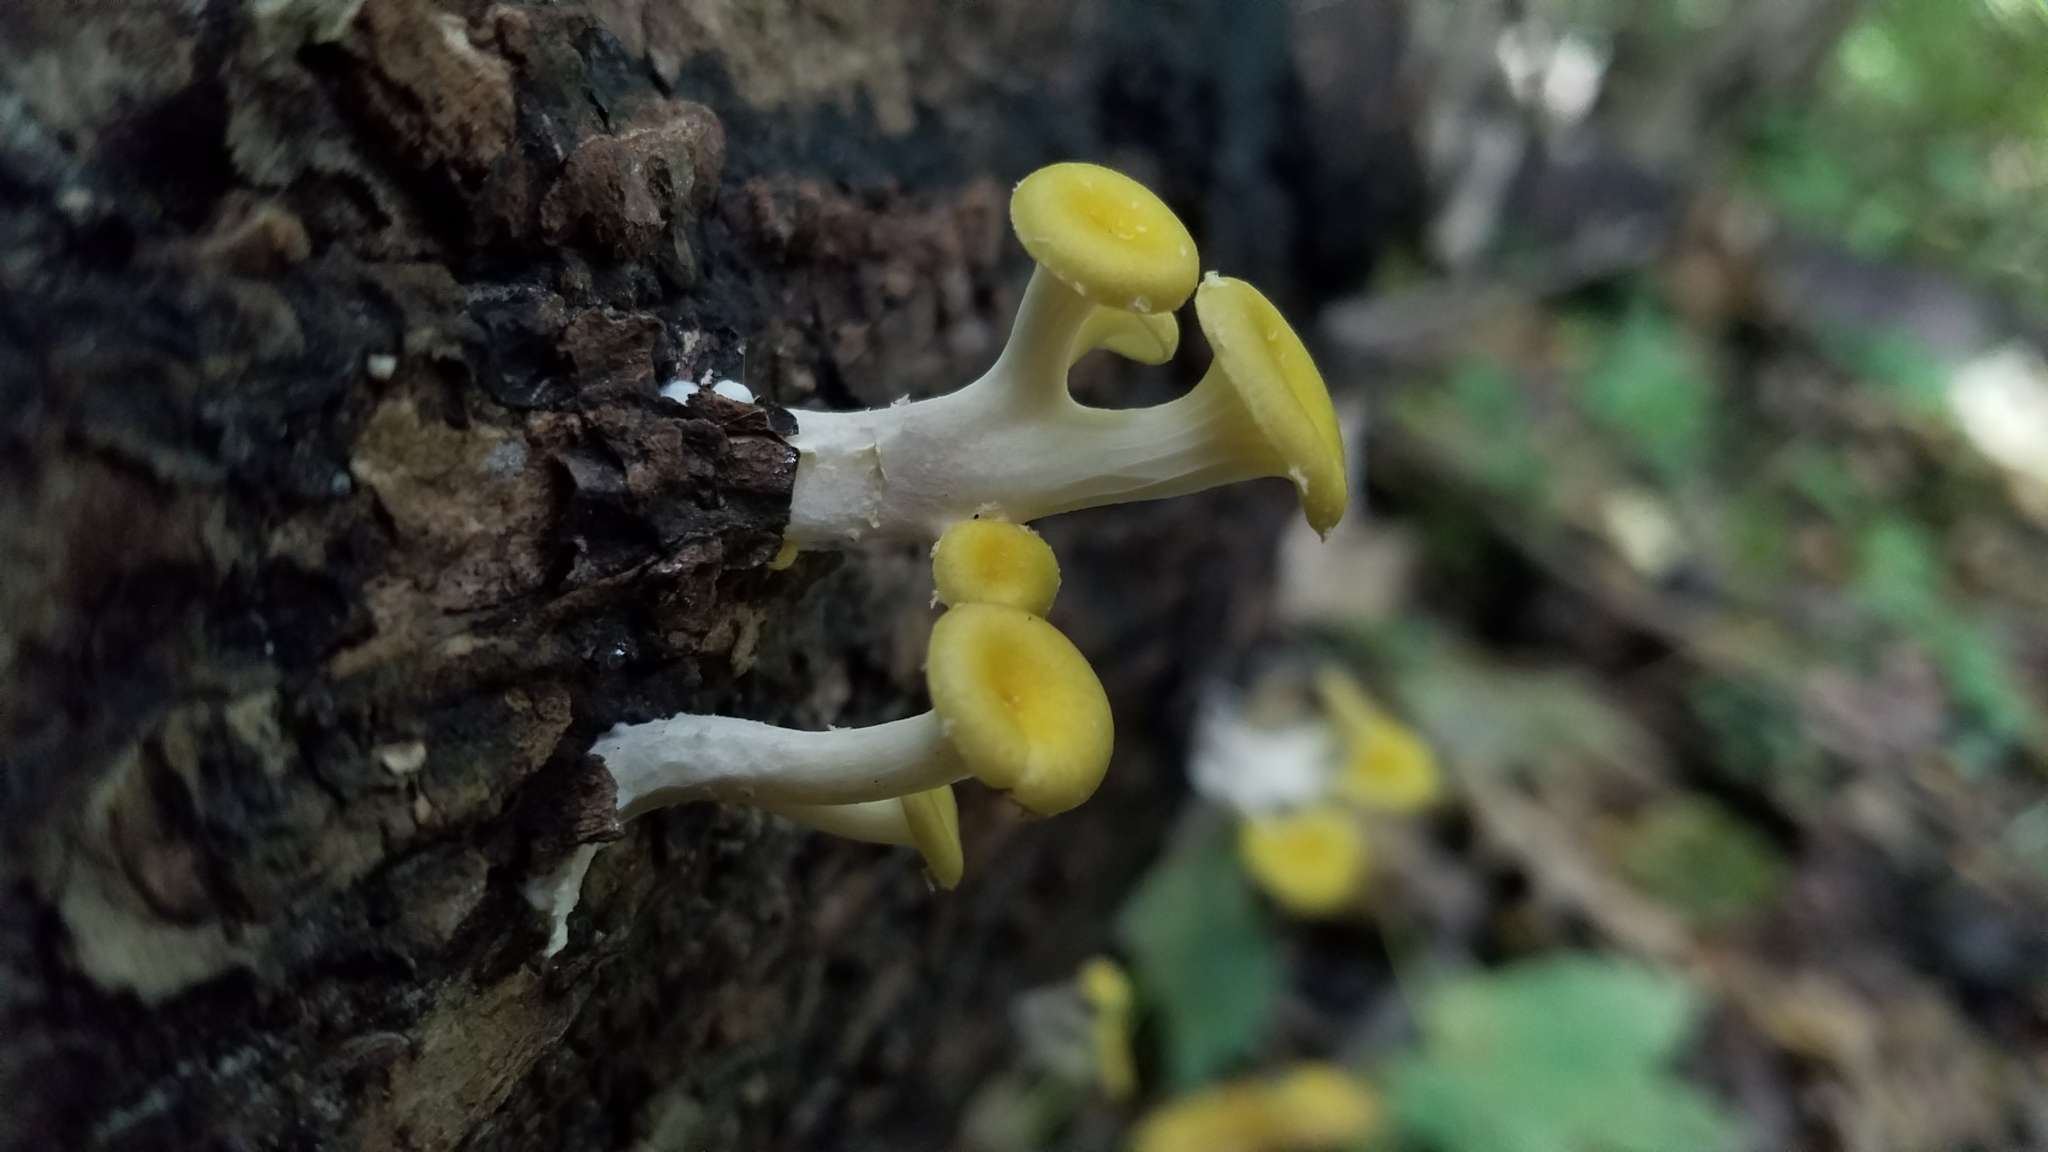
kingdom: Fungi
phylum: Basidiomycota
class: Agaricomycetes
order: Agaricales
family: Pleurotaceae
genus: Pleurotus
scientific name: Pleurotus citrinopileatus
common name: Golden oyster mushroom
